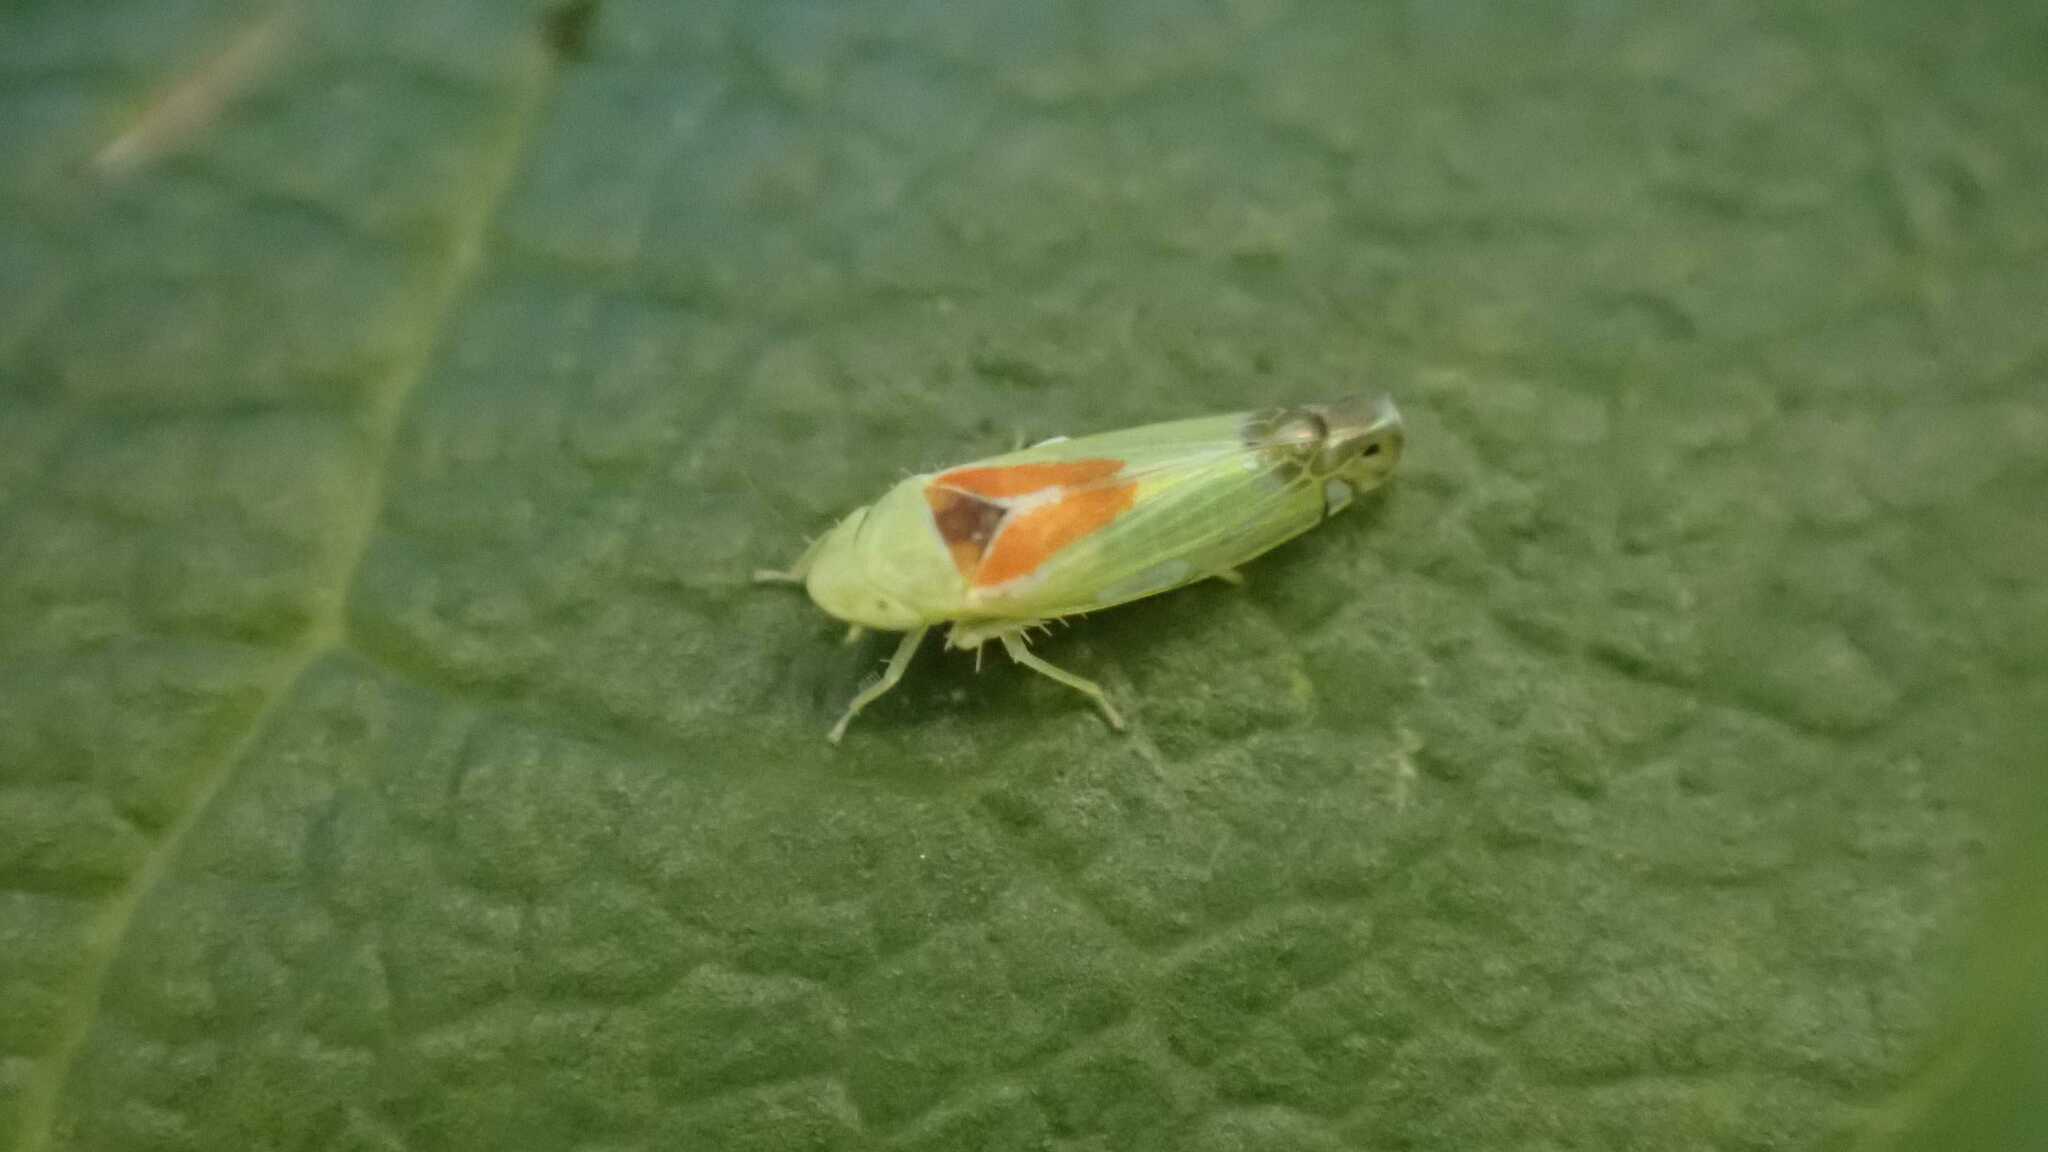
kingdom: Animalia
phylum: Arthropoda
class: Insecta
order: Hemiptera
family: Cicadellidae
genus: Zyginella
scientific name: Zyginella pulchra
